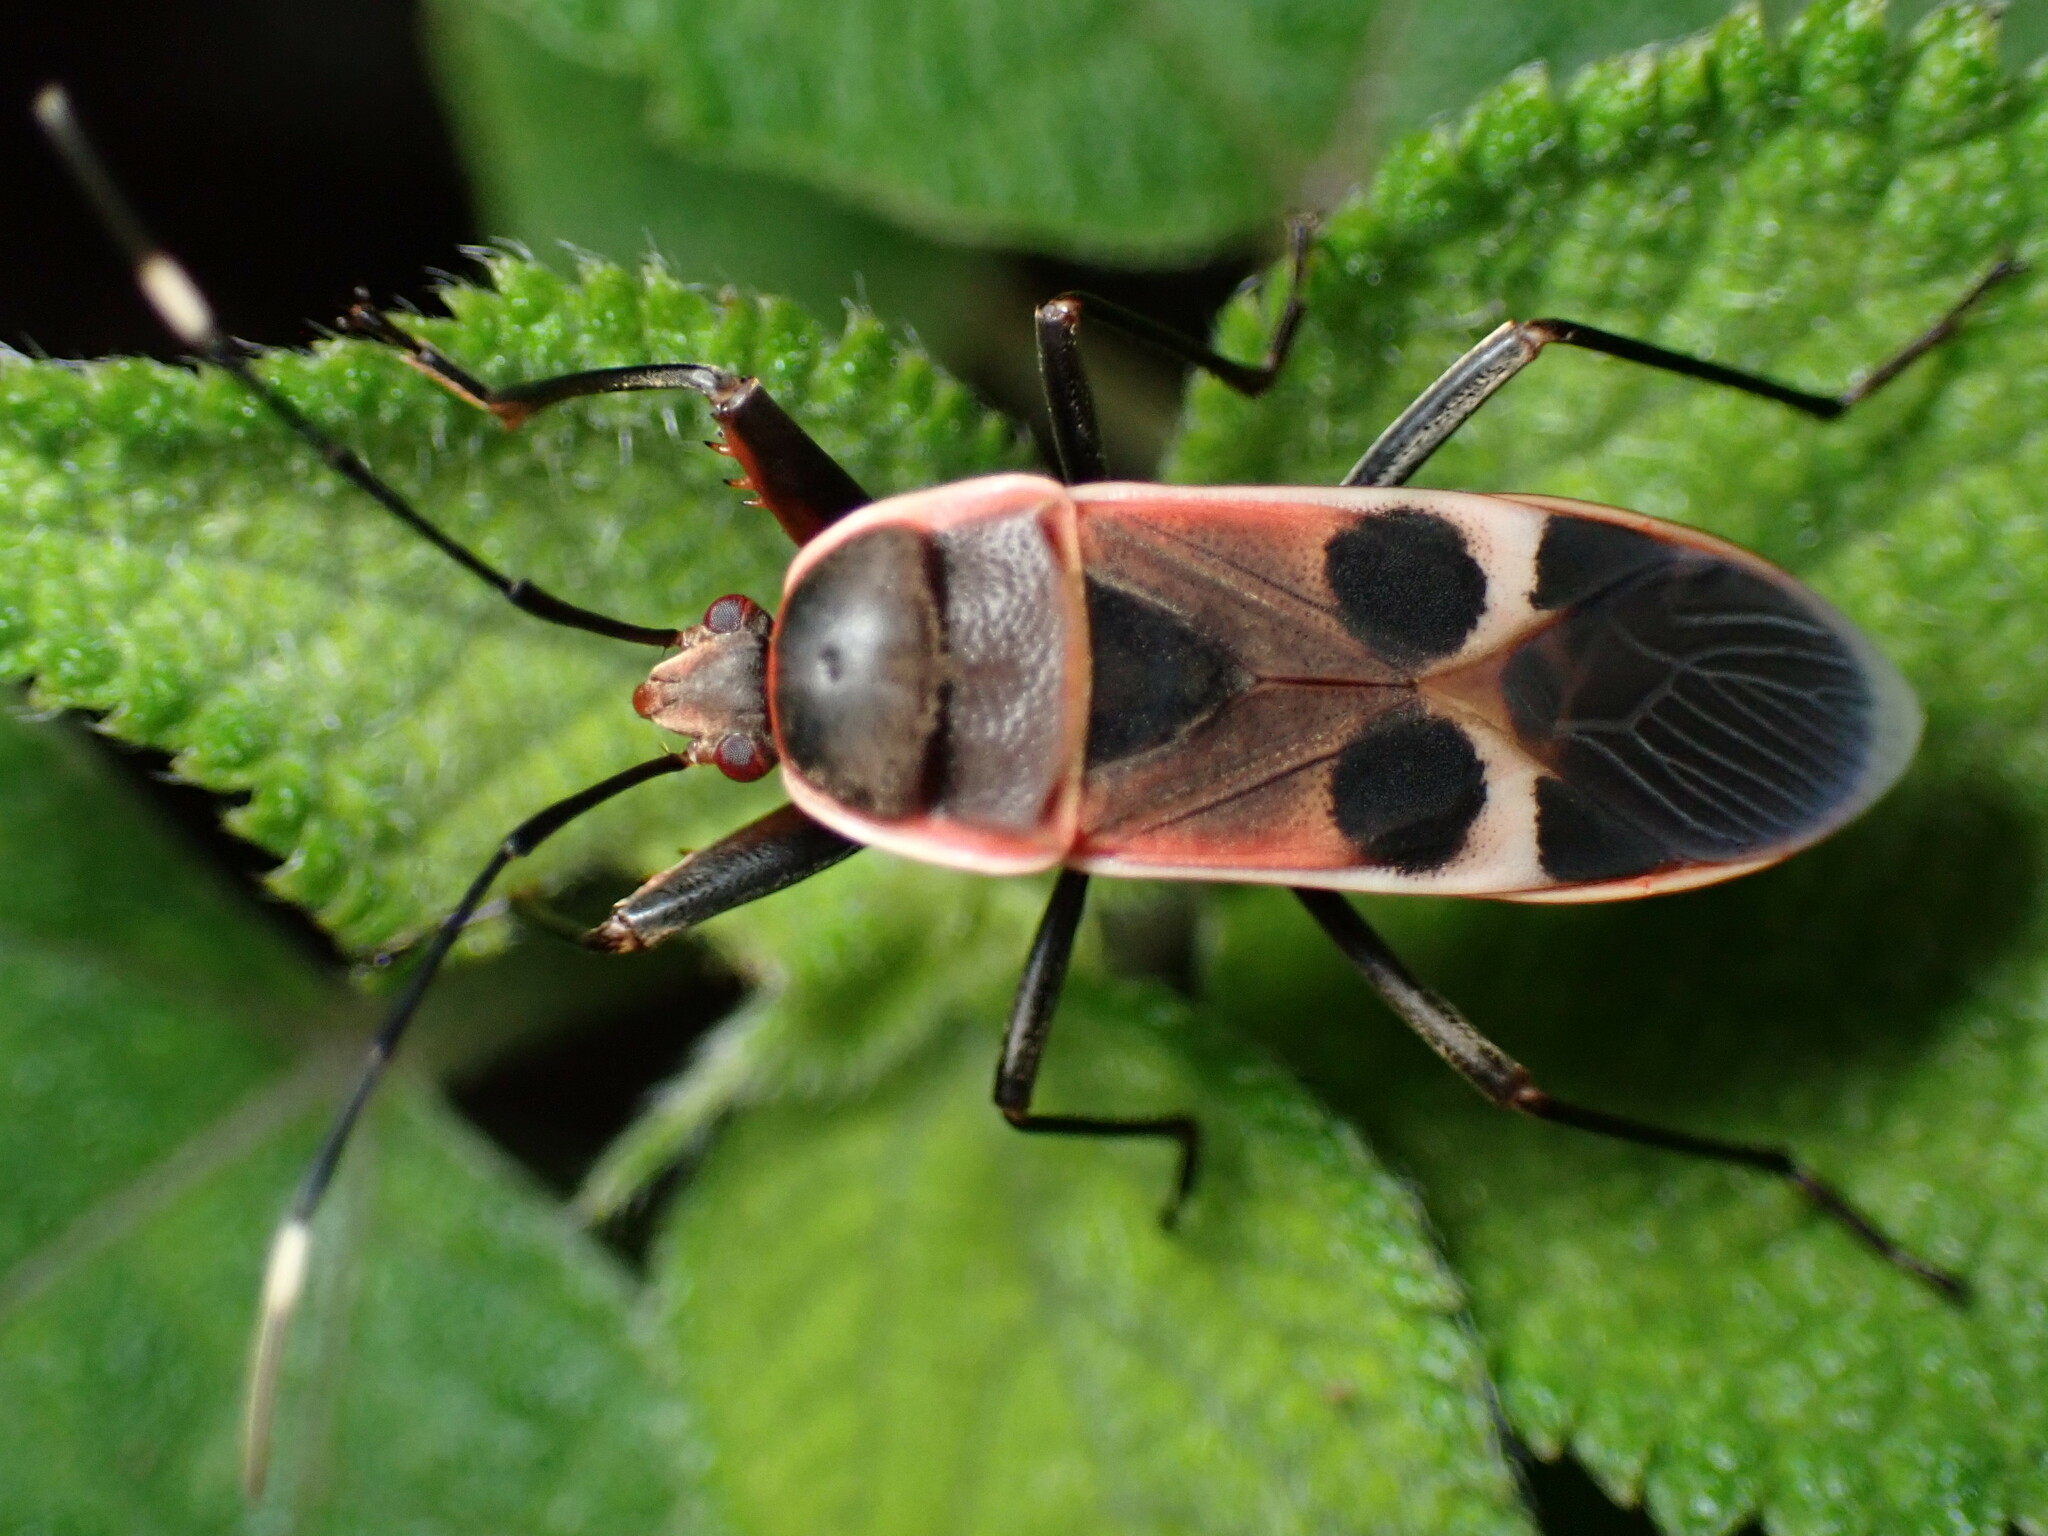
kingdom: Animalia
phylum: Arthropoda
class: Insecta
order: Hemiptera
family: Largidae
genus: Physopelta
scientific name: Physopelta gutta
